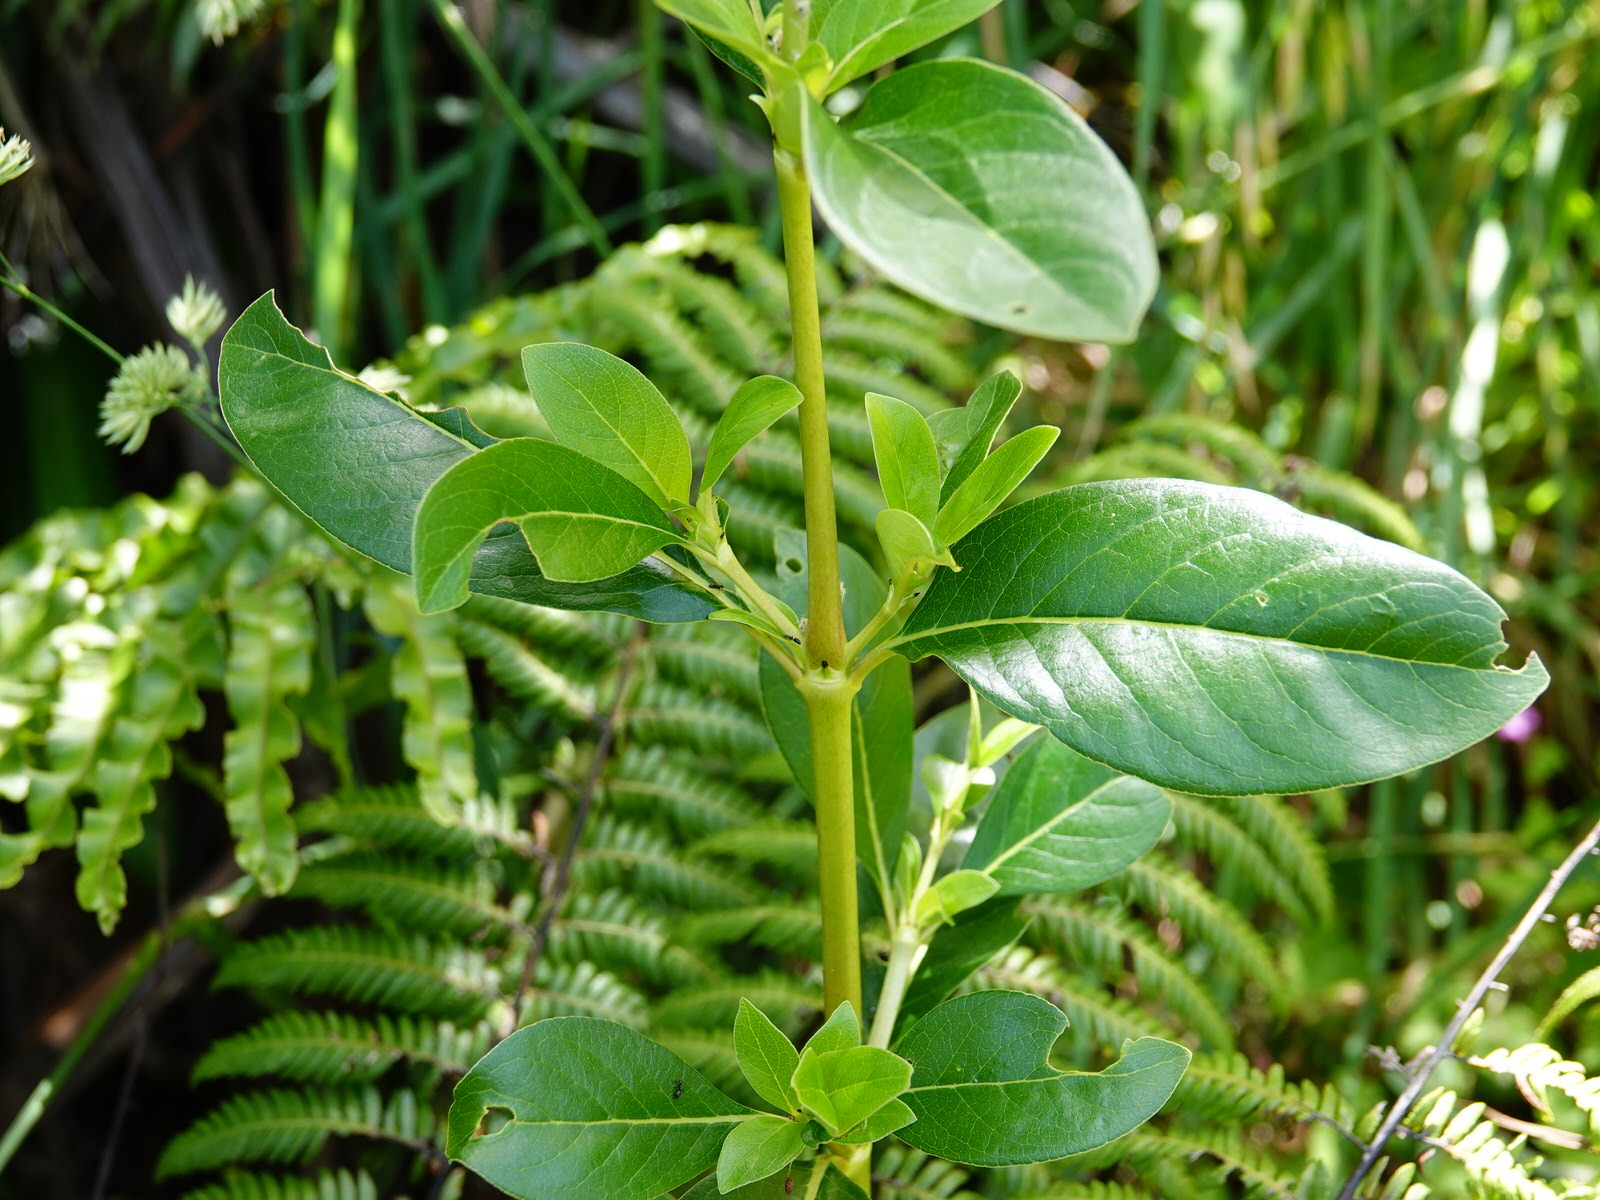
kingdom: Plantae
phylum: Tracheophyta
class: Magnoliopsida
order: Gentianales
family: Rubiaceae
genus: Coprosma
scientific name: Coprosma robusta
